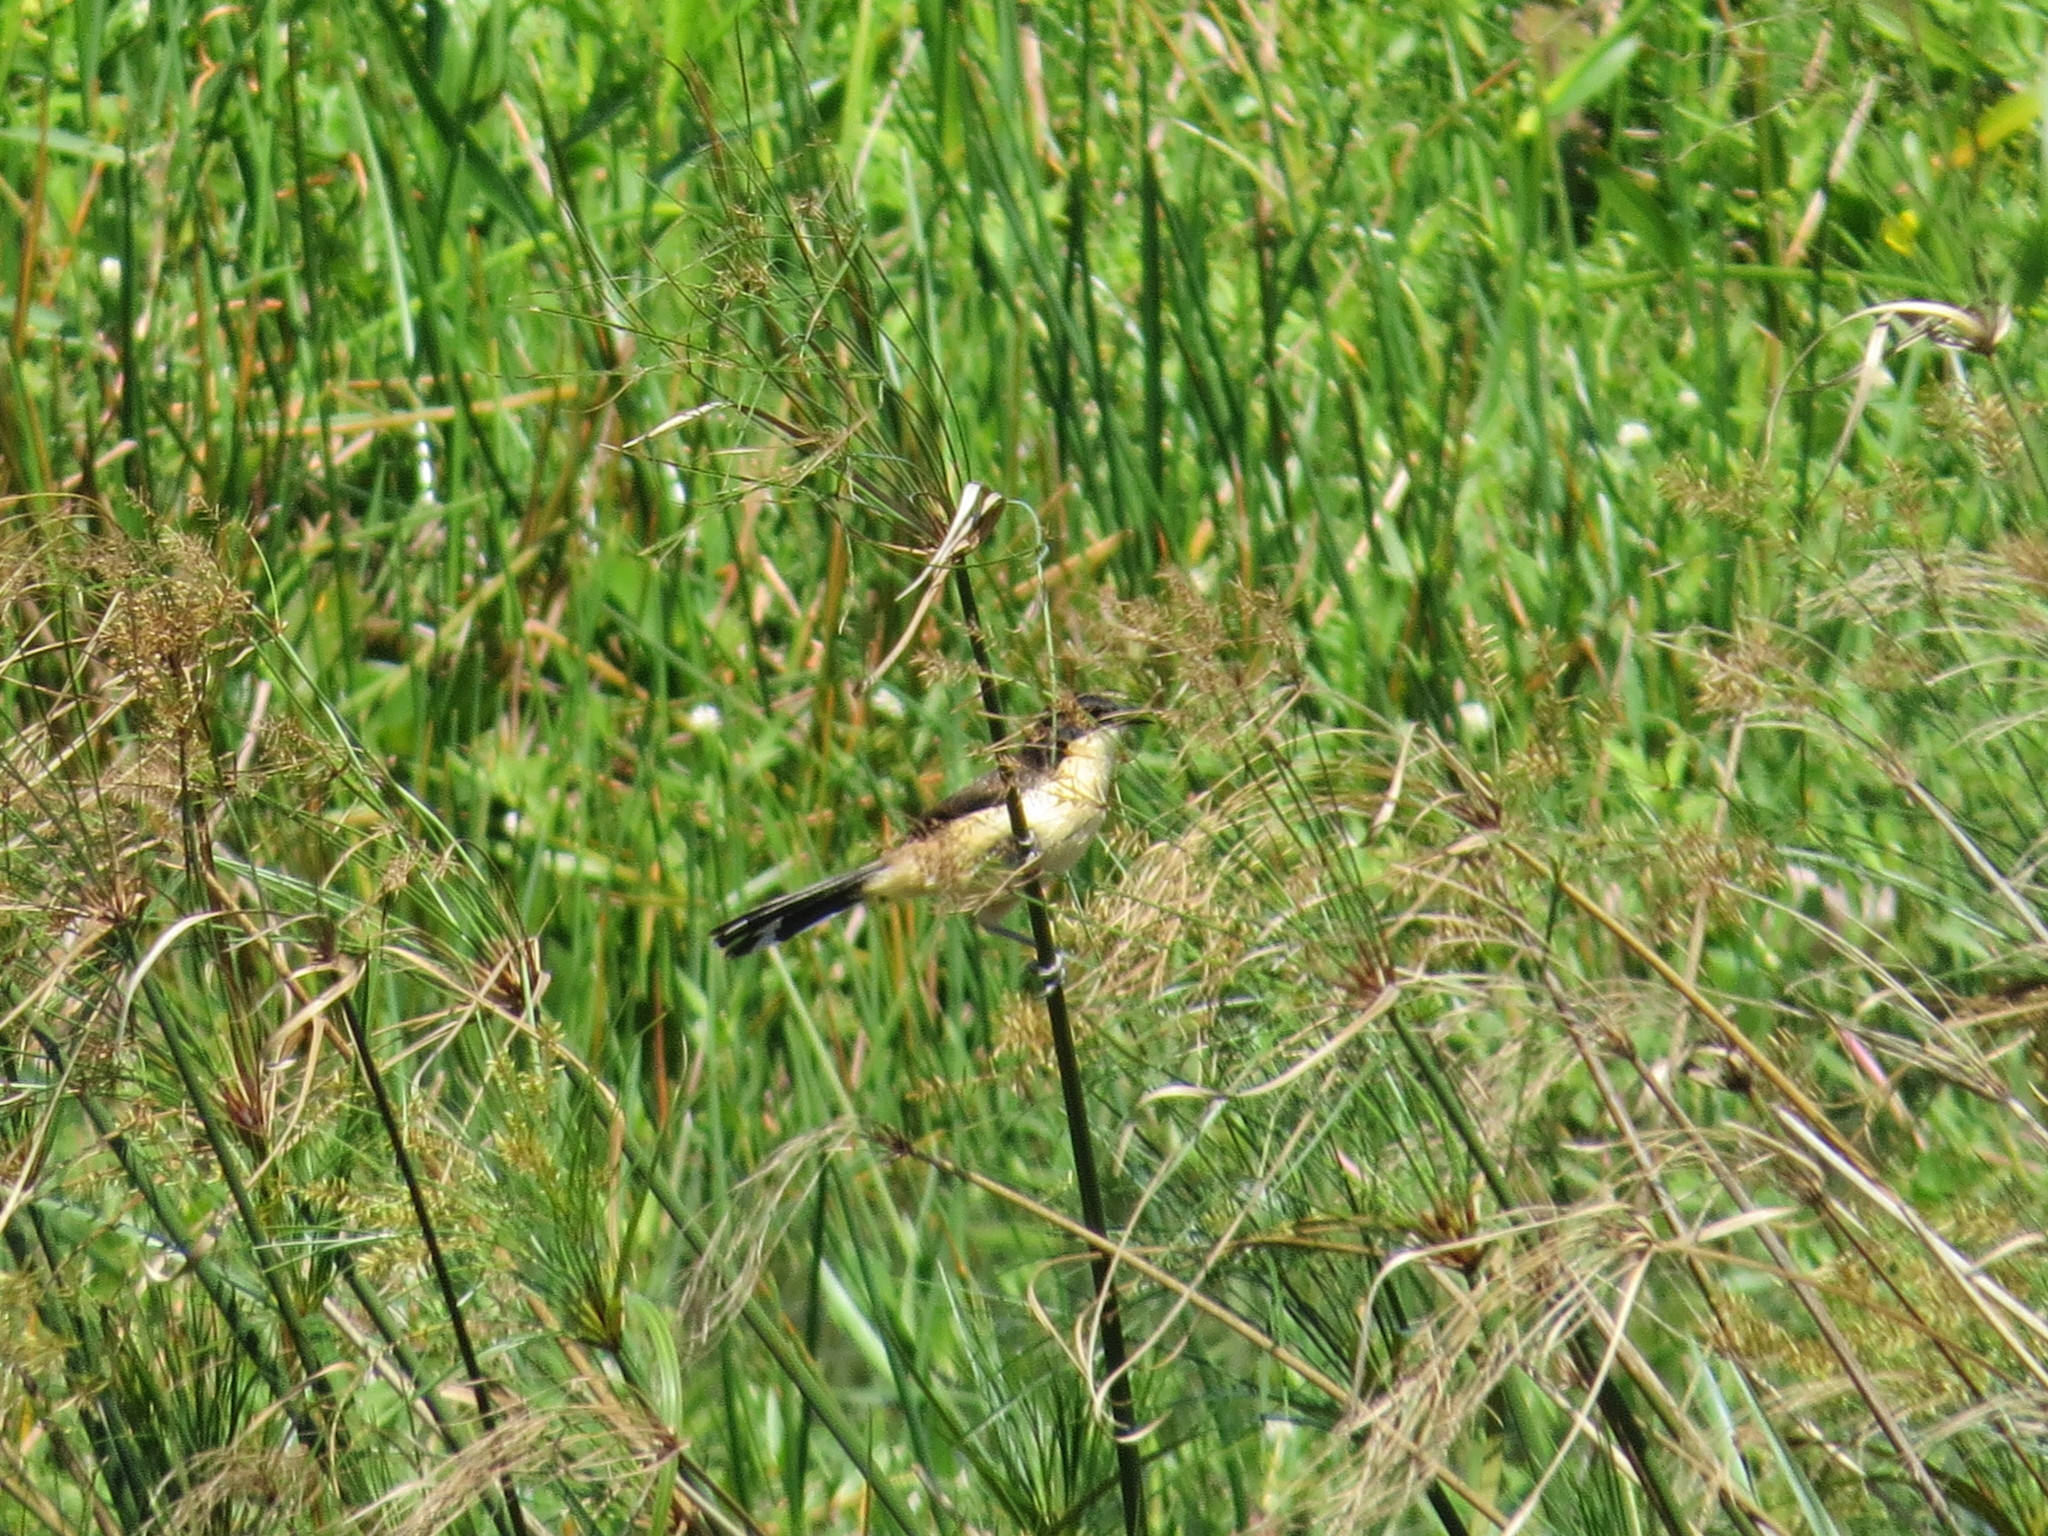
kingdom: Animalia
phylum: Chordata
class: Aves
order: Passeriformes
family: Donacobiidae
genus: Donacobius
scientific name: Donacobius atricapilla
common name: Black-capped donacobius
